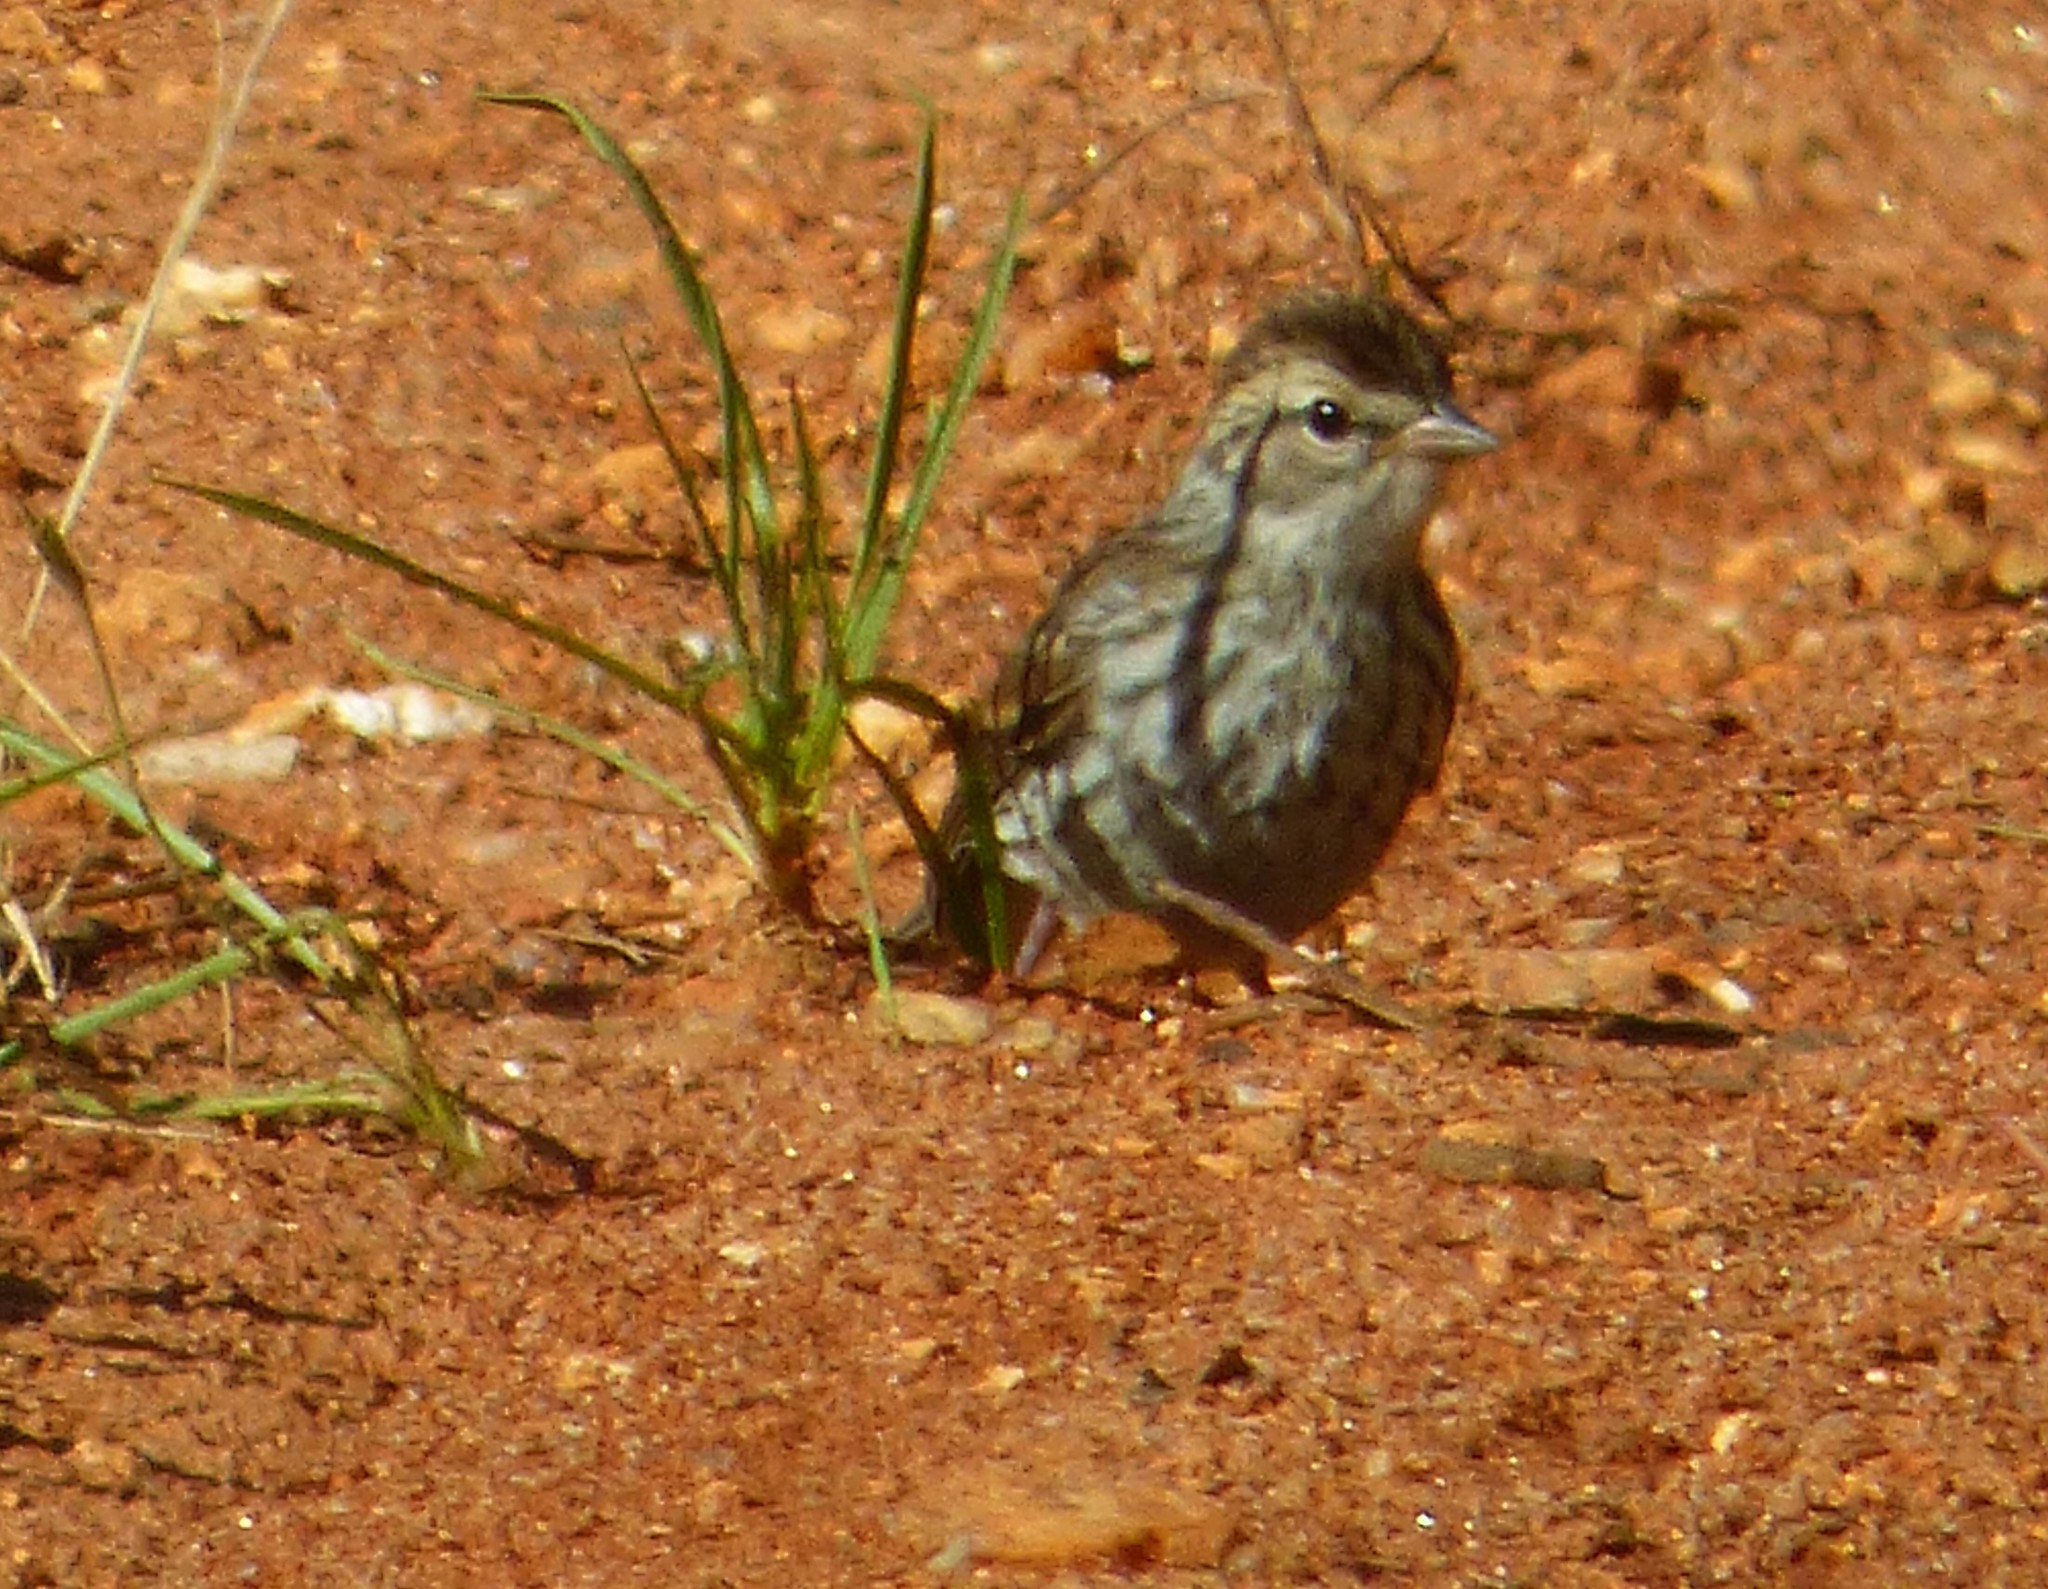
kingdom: Animalia
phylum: Chordata
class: Aves
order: Passeriformes
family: Passerellidae
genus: Spizella
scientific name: Spizella passerina
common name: Chipping sparrow
